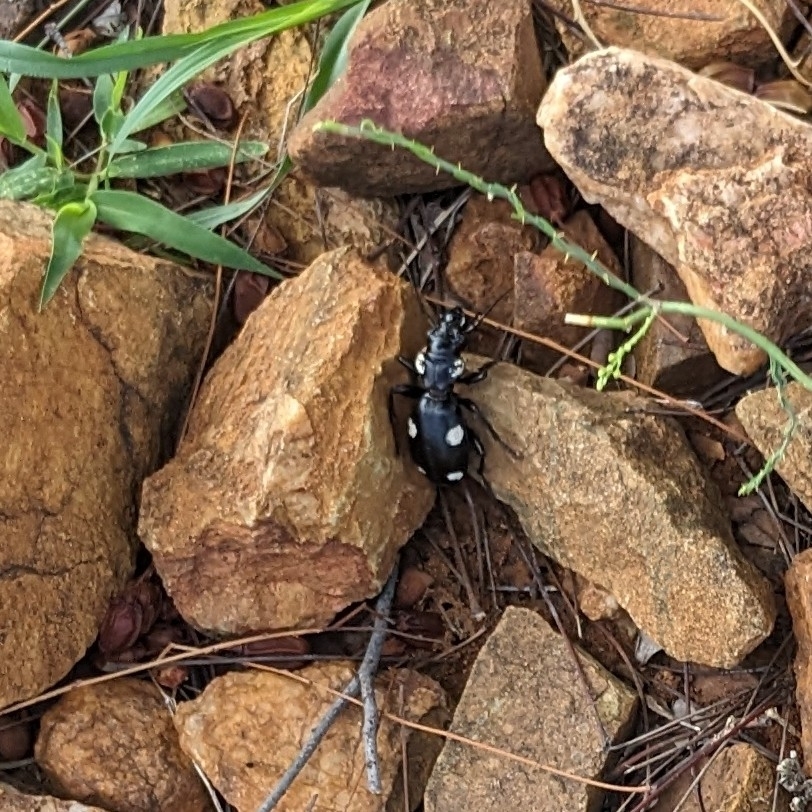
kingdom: Animalia
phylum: Arthropoda
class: Insecta
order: Coleoptera
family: Carabidae
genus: Anthia
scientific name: Anthia sexguttata
